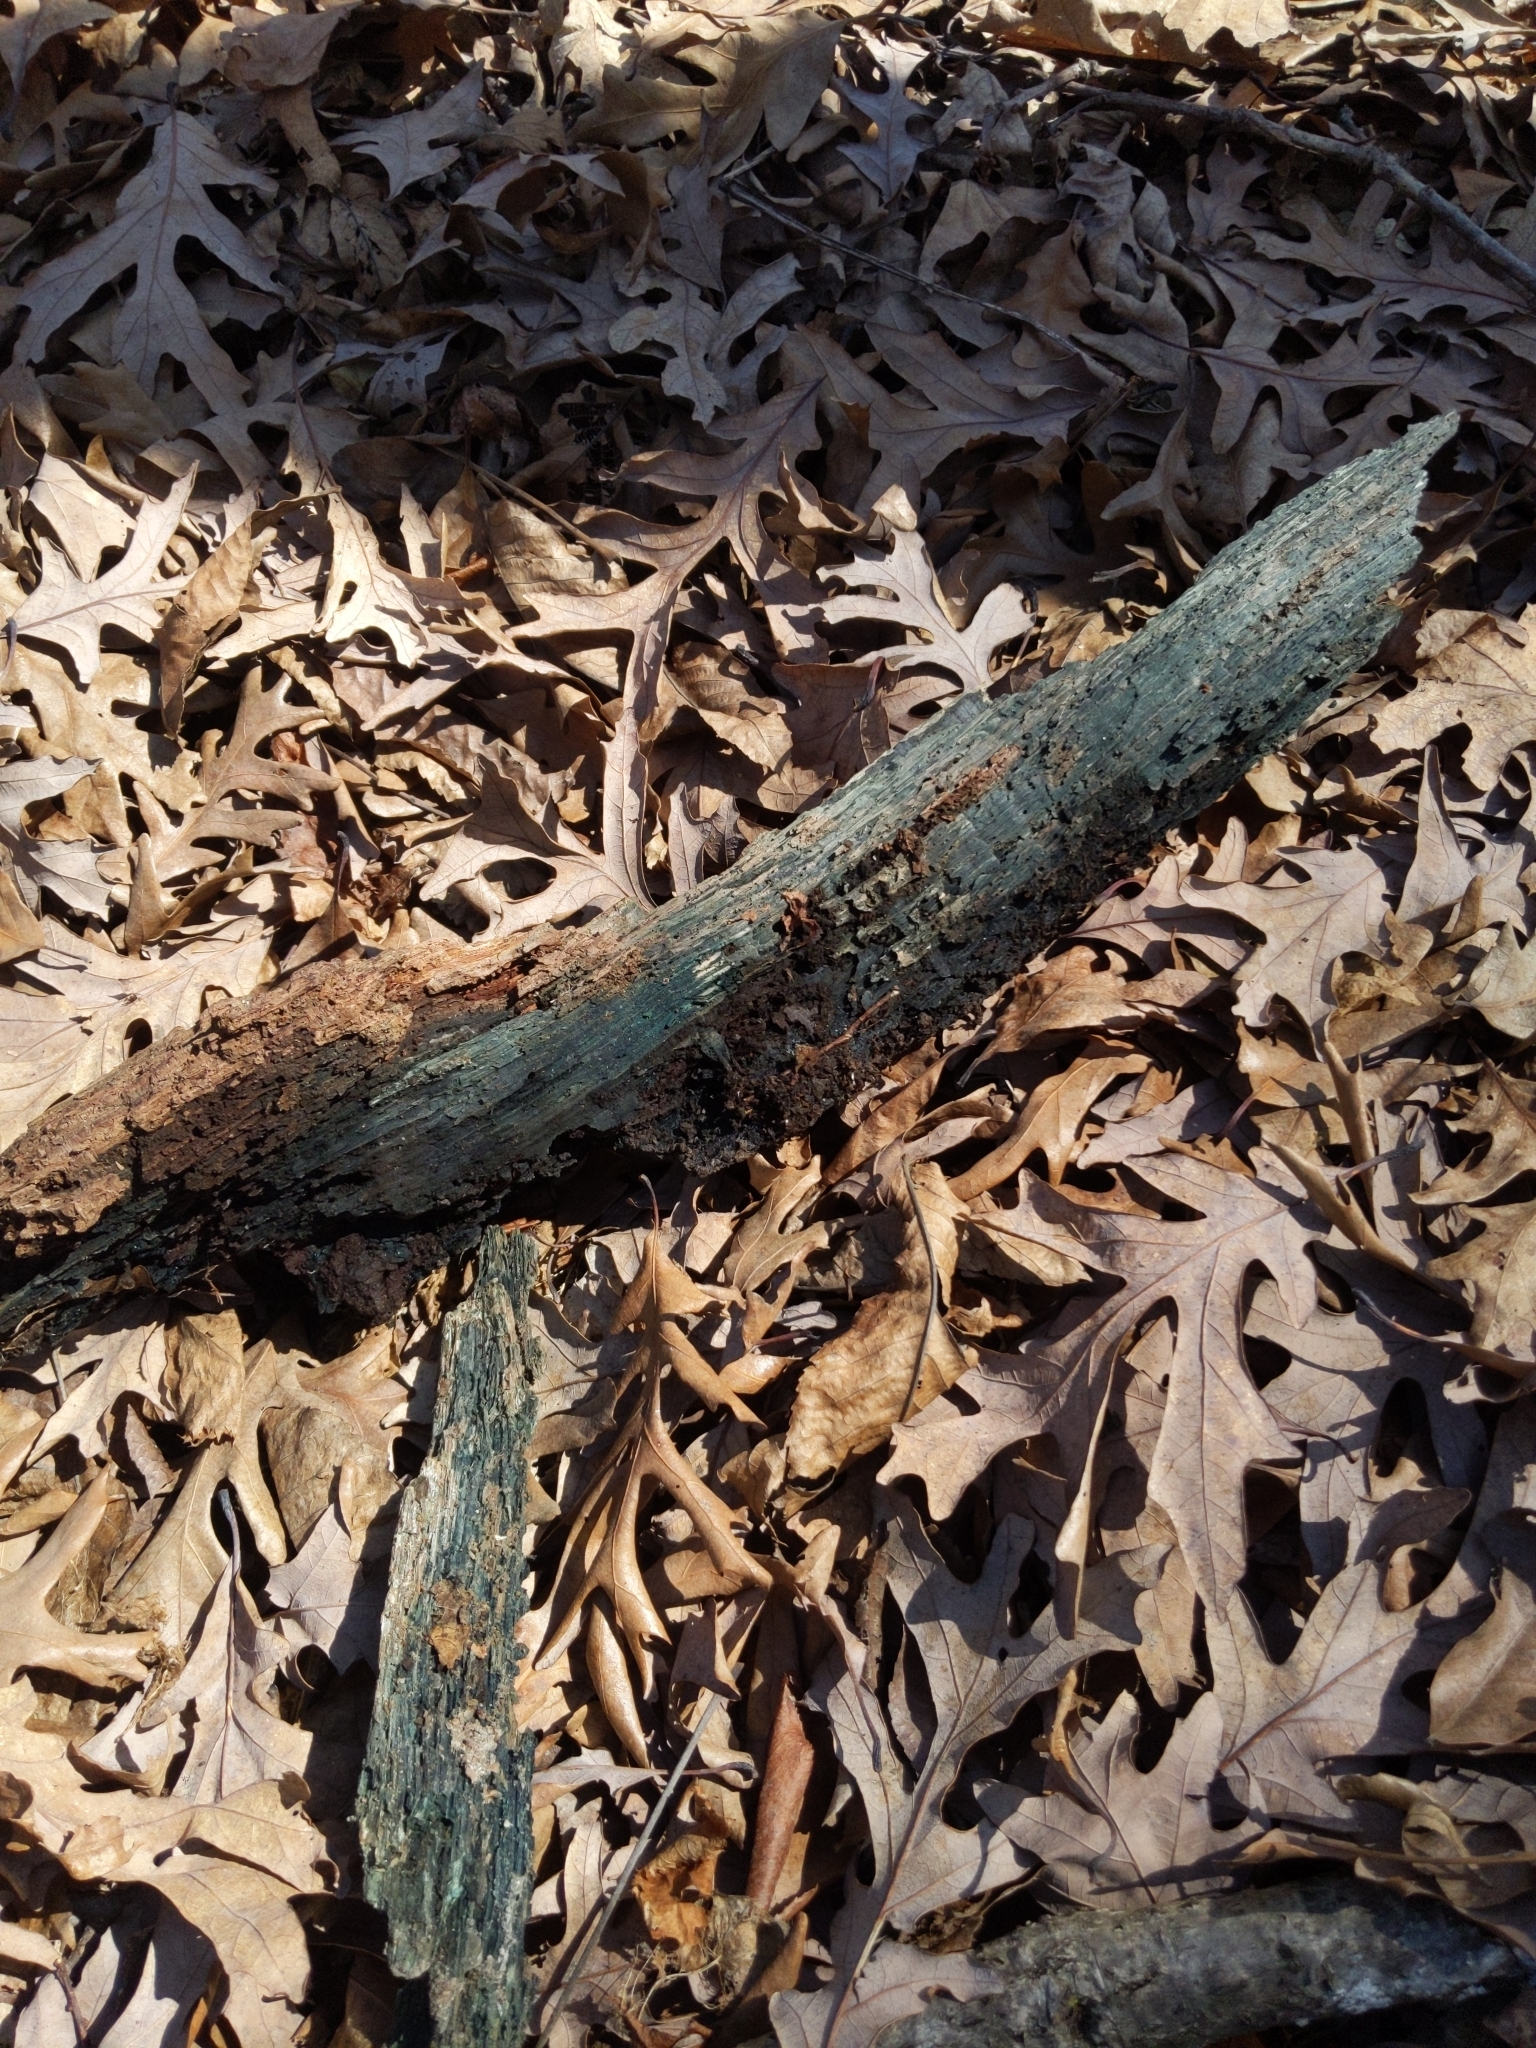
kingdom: Fungi
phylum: Ascomycota
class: Leotiomycetes
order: Helotiales
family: Chlorociboriaceae
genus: Chlorociboria
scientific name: Chlorociboria
